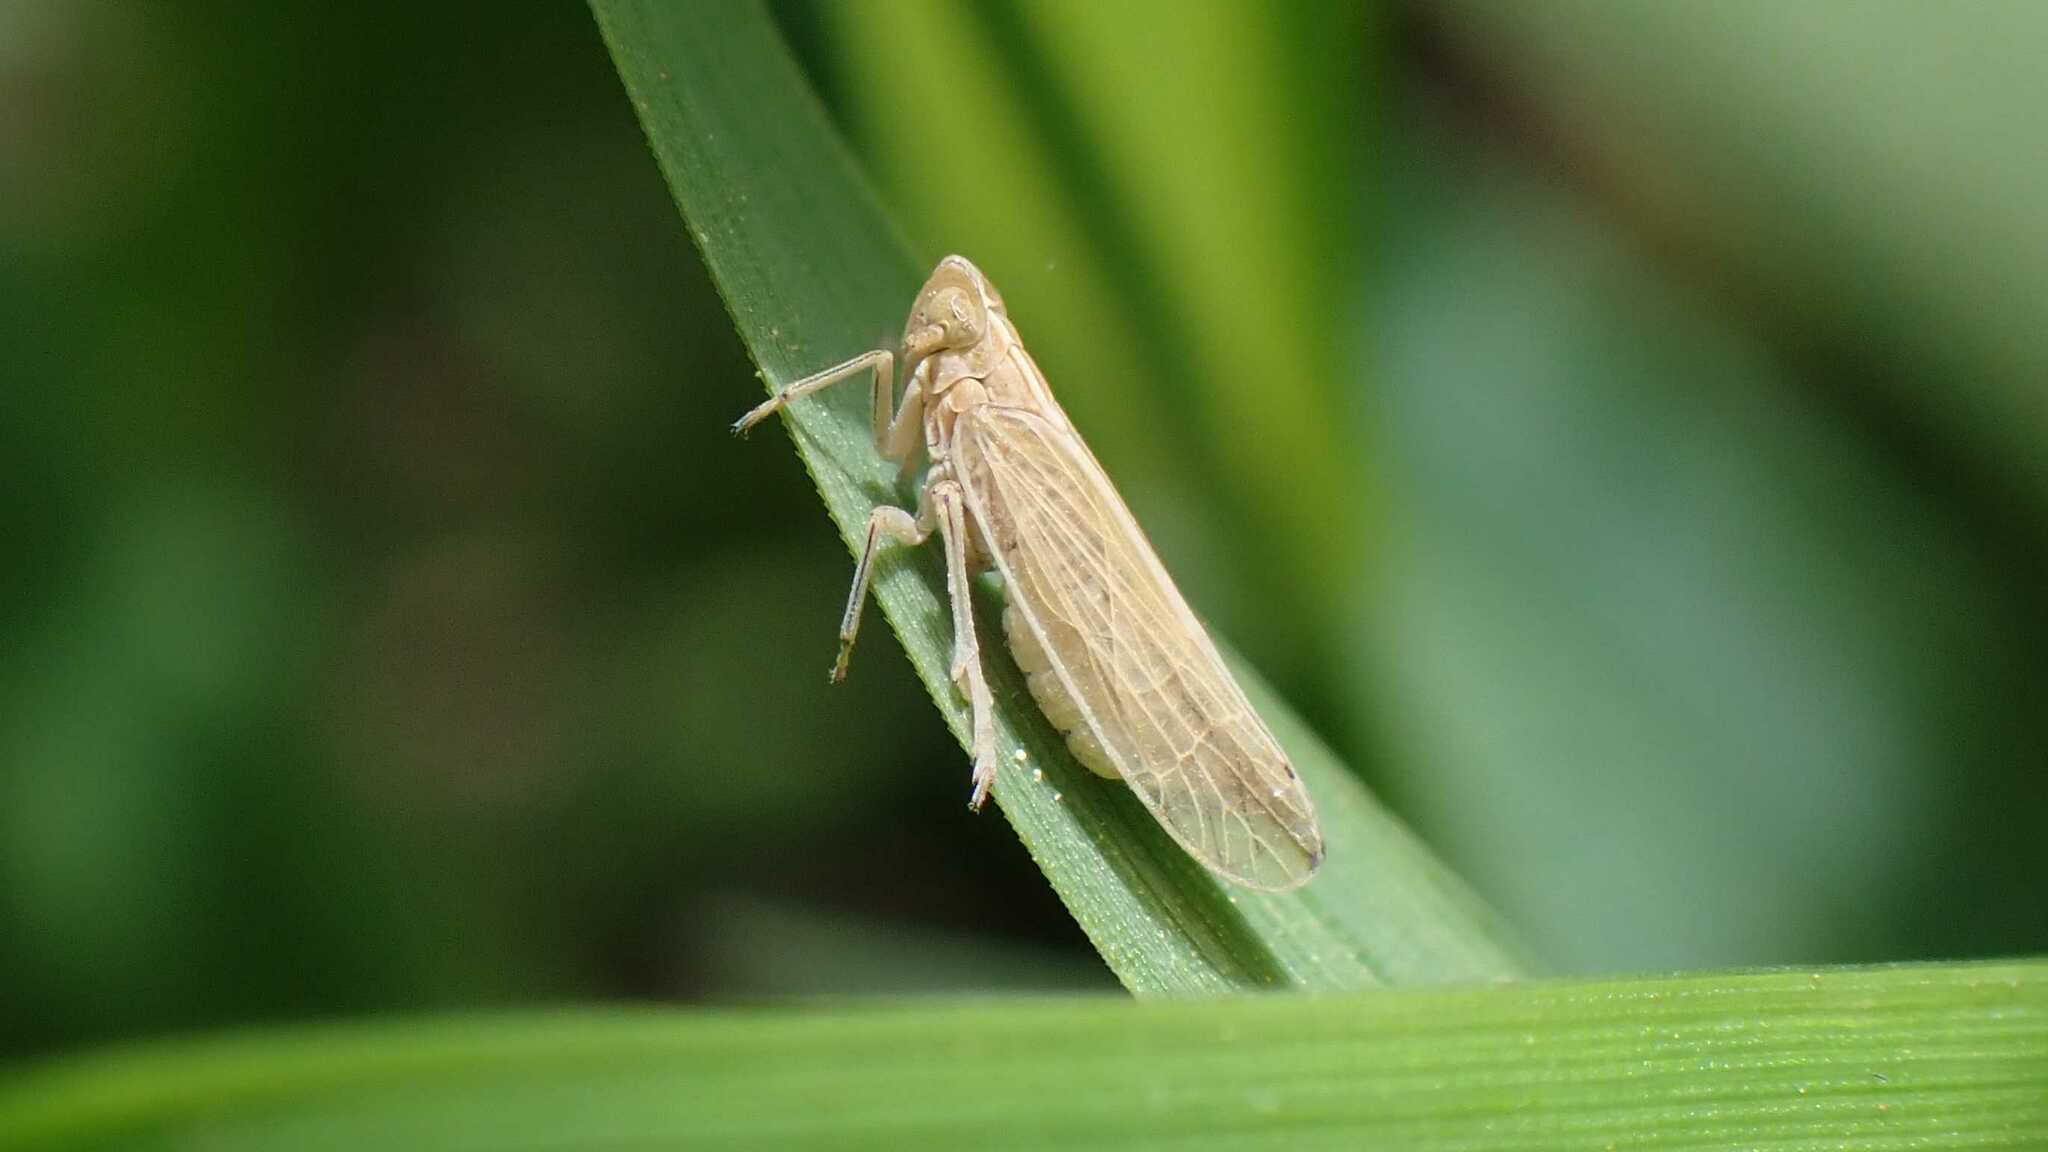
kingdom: Animalia
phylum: Arthropoda
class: Insecta
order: Hemiptera
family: Delphacidae
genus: Stenocranus
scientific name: Stenocranus major
